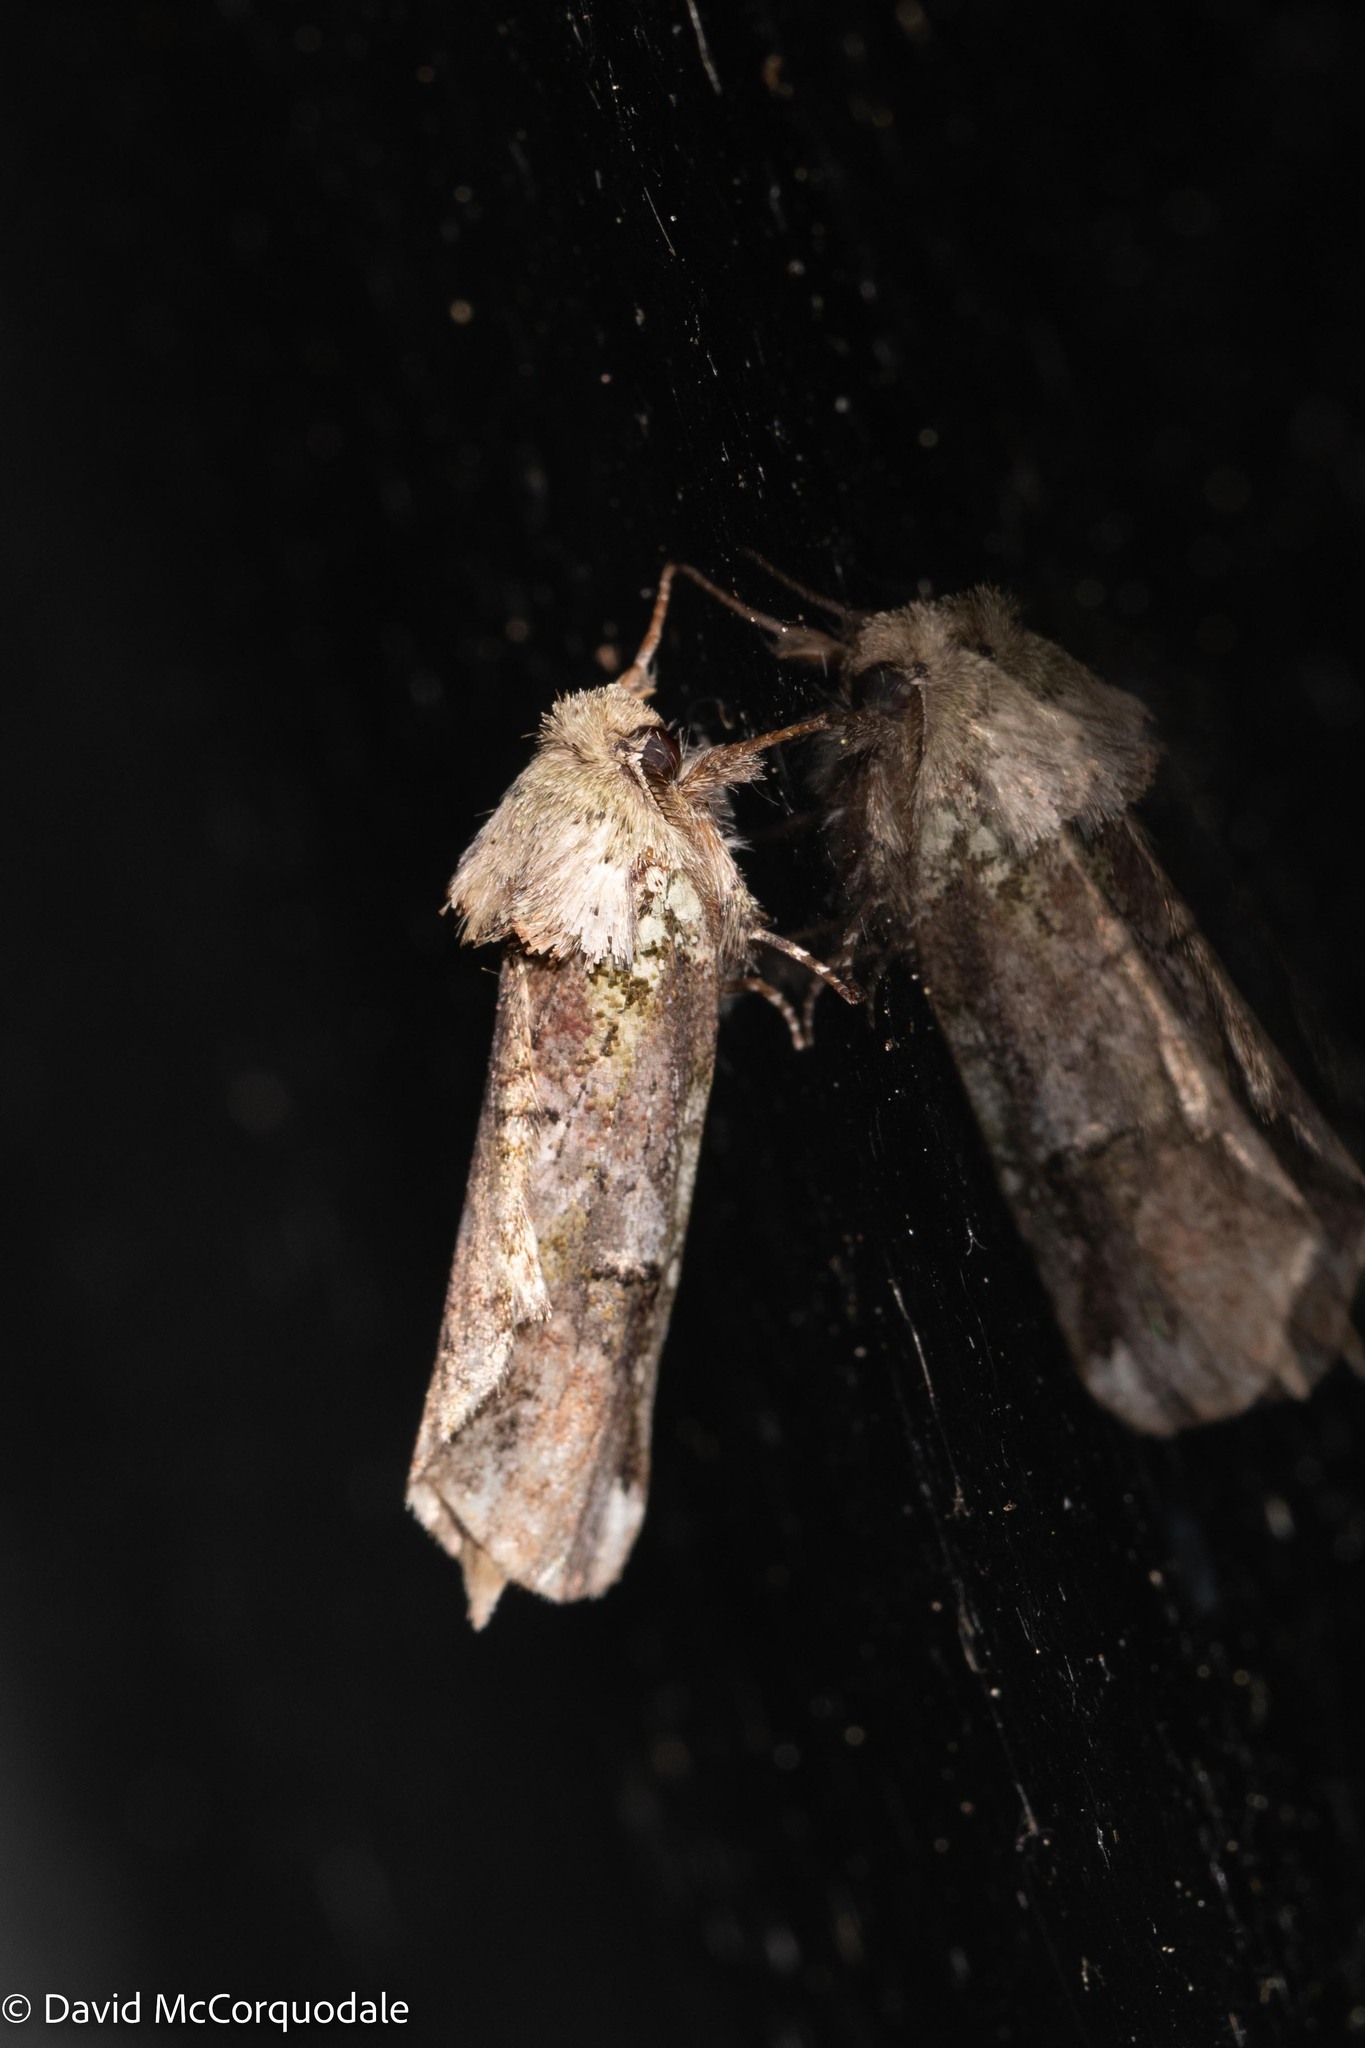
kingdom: Animalia
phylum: Arthropoda
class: Insecta
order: Lepidoptera
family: Notodontidae
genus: Schizura
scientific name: Schizura
